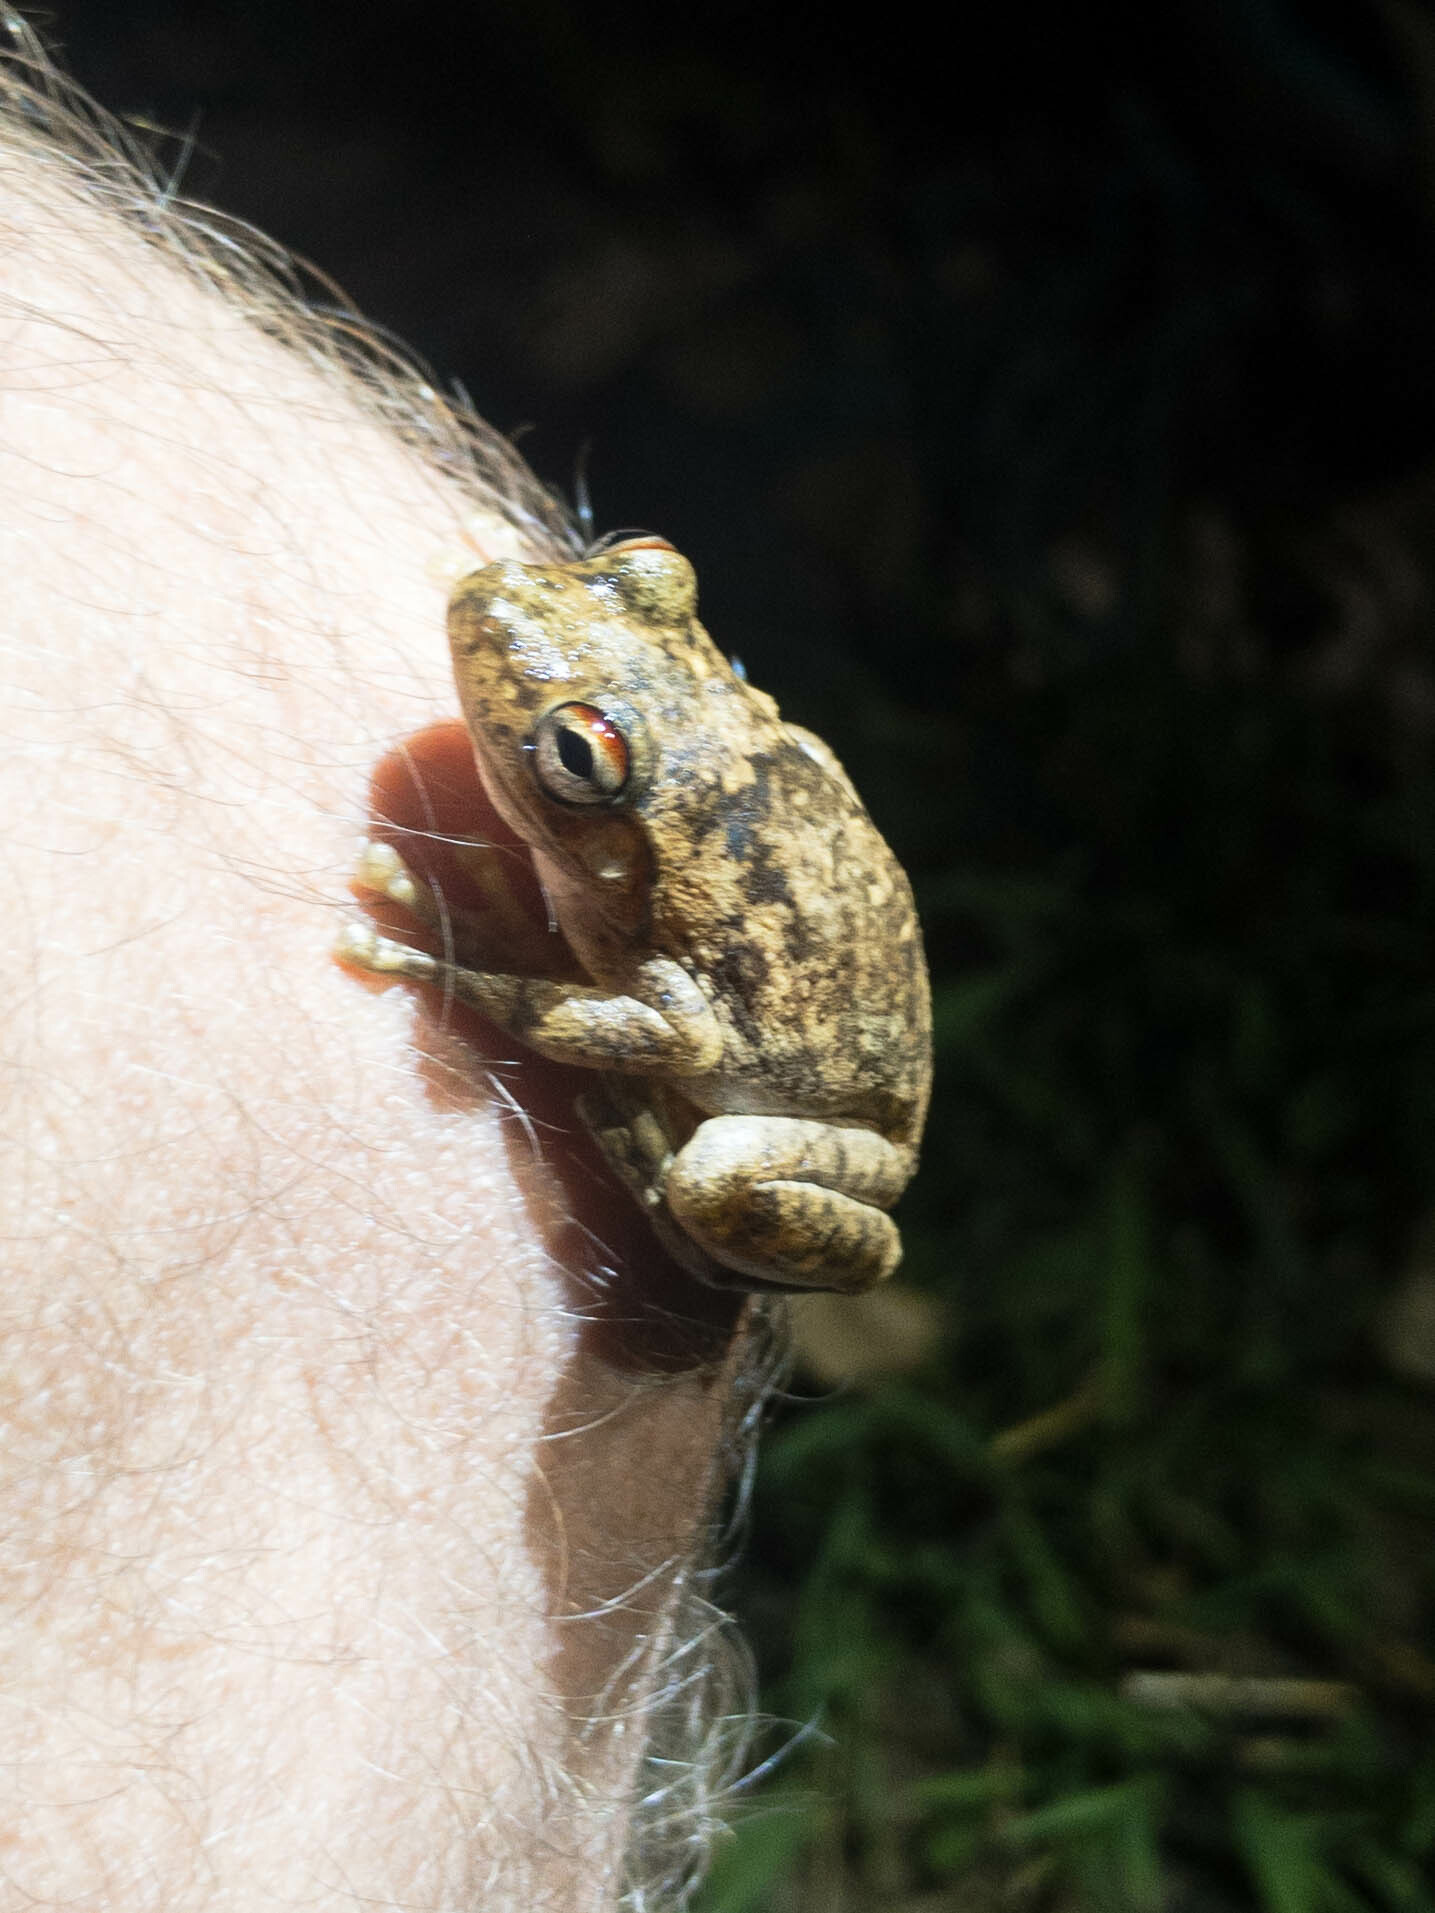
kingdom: Animalia
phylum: Chordata
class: Amphibia
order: Anura
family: Pelodryadidae
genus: Litoria
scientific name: Litoria
